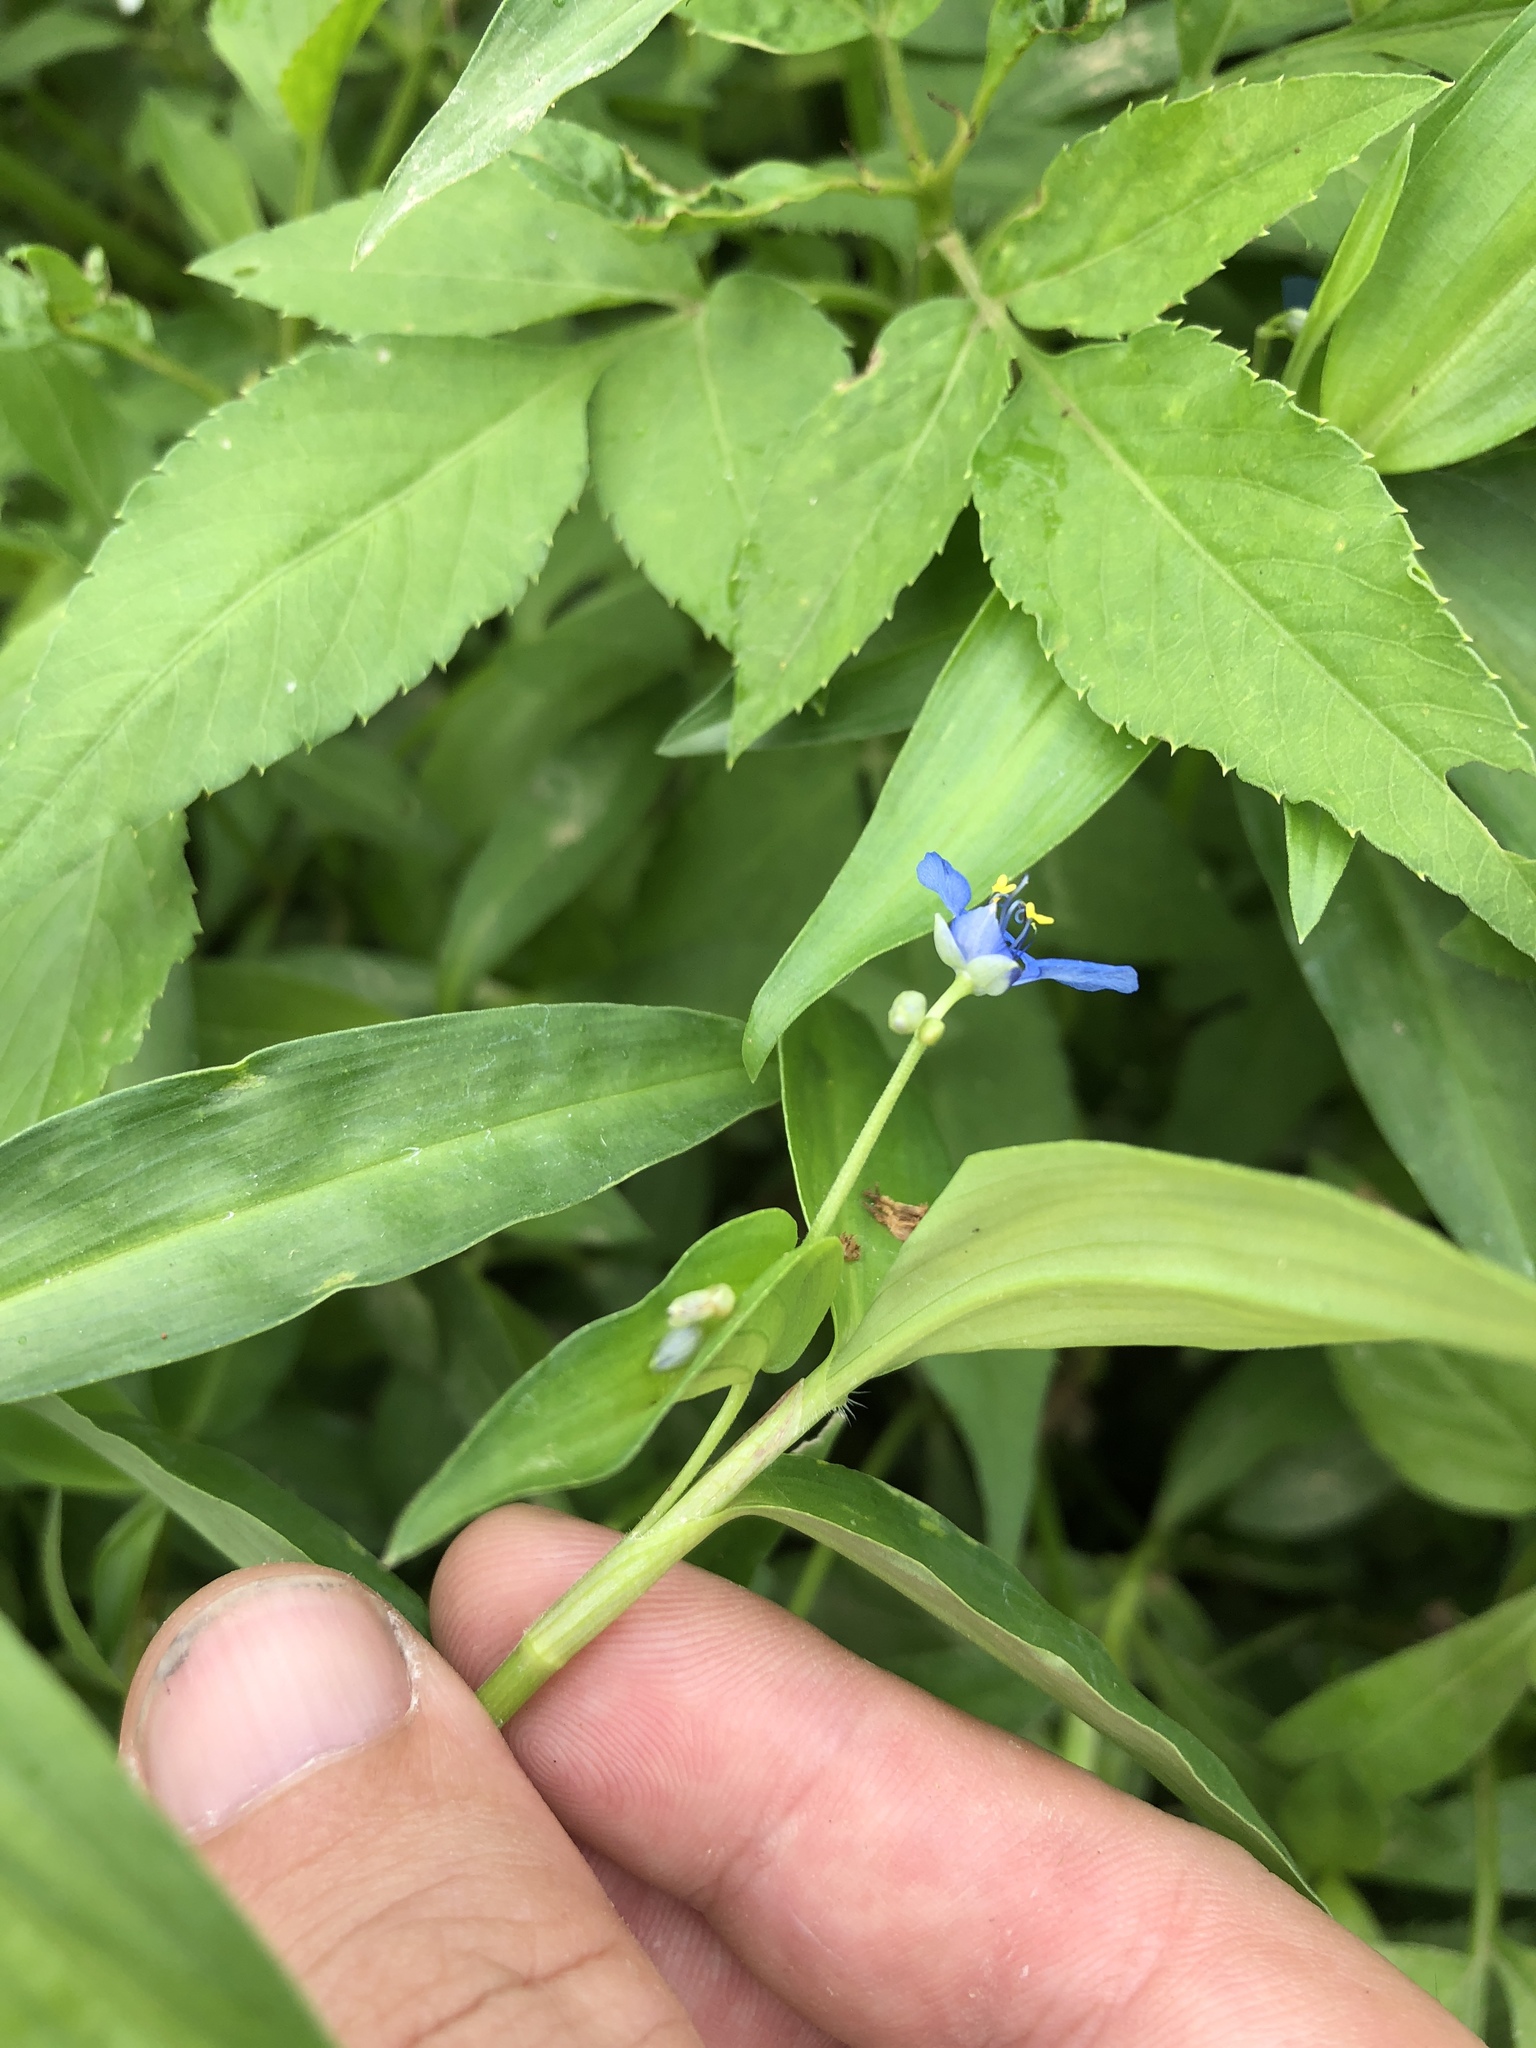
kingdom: Plantae
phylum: Tracheophyta
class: Liliopsida
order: Commelinales
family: Commelinaceae
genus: Commelina
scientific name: Commelina diffusa
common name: Climbing dayflower
